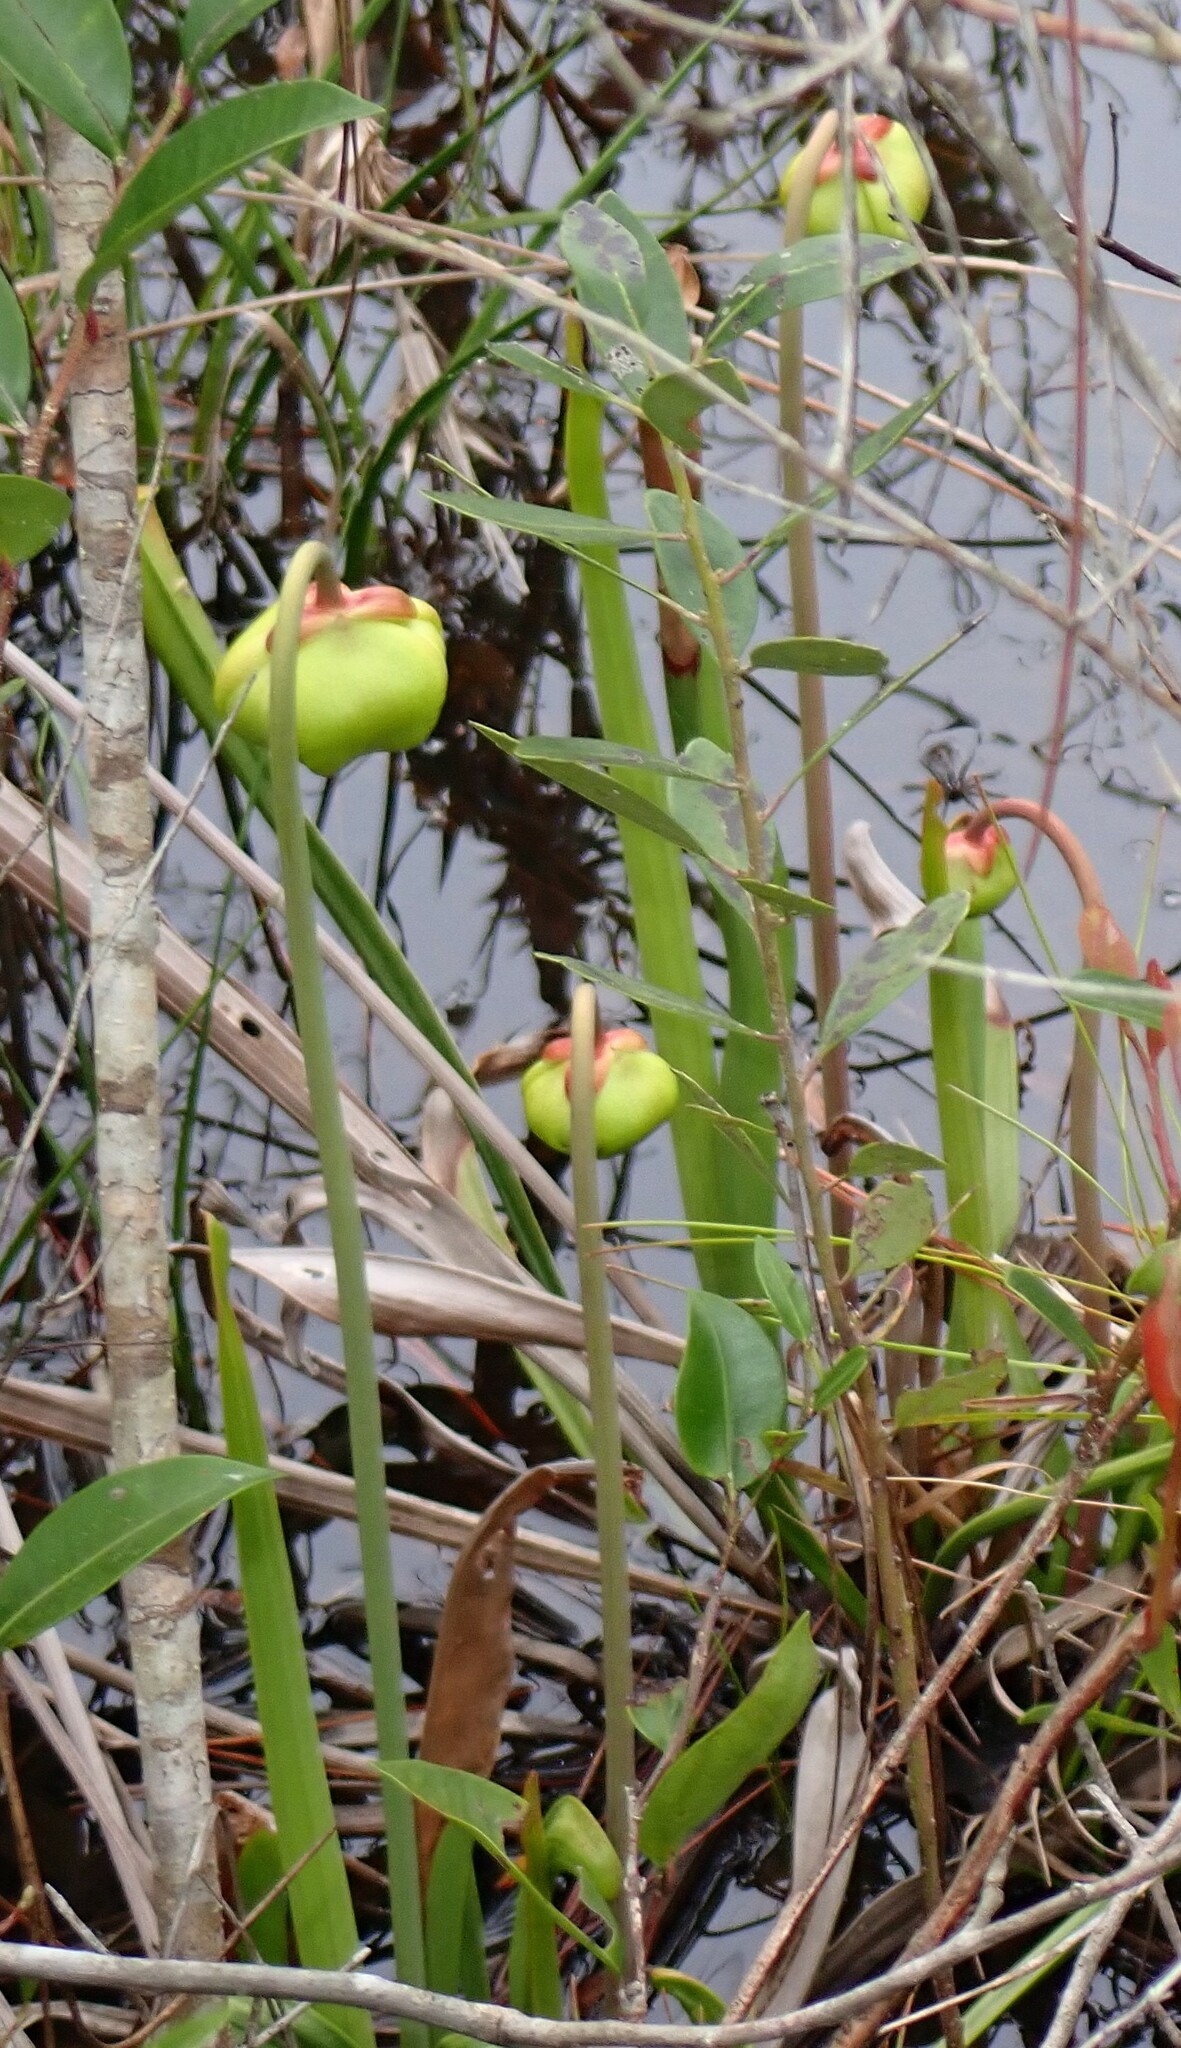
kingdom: Plantae
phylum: Tracheophyta
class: Magnoliopsida
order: Ericales
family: Sarraceniaceae
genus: Sarracenia
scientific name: Sarracenia flava
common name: Trumpets
